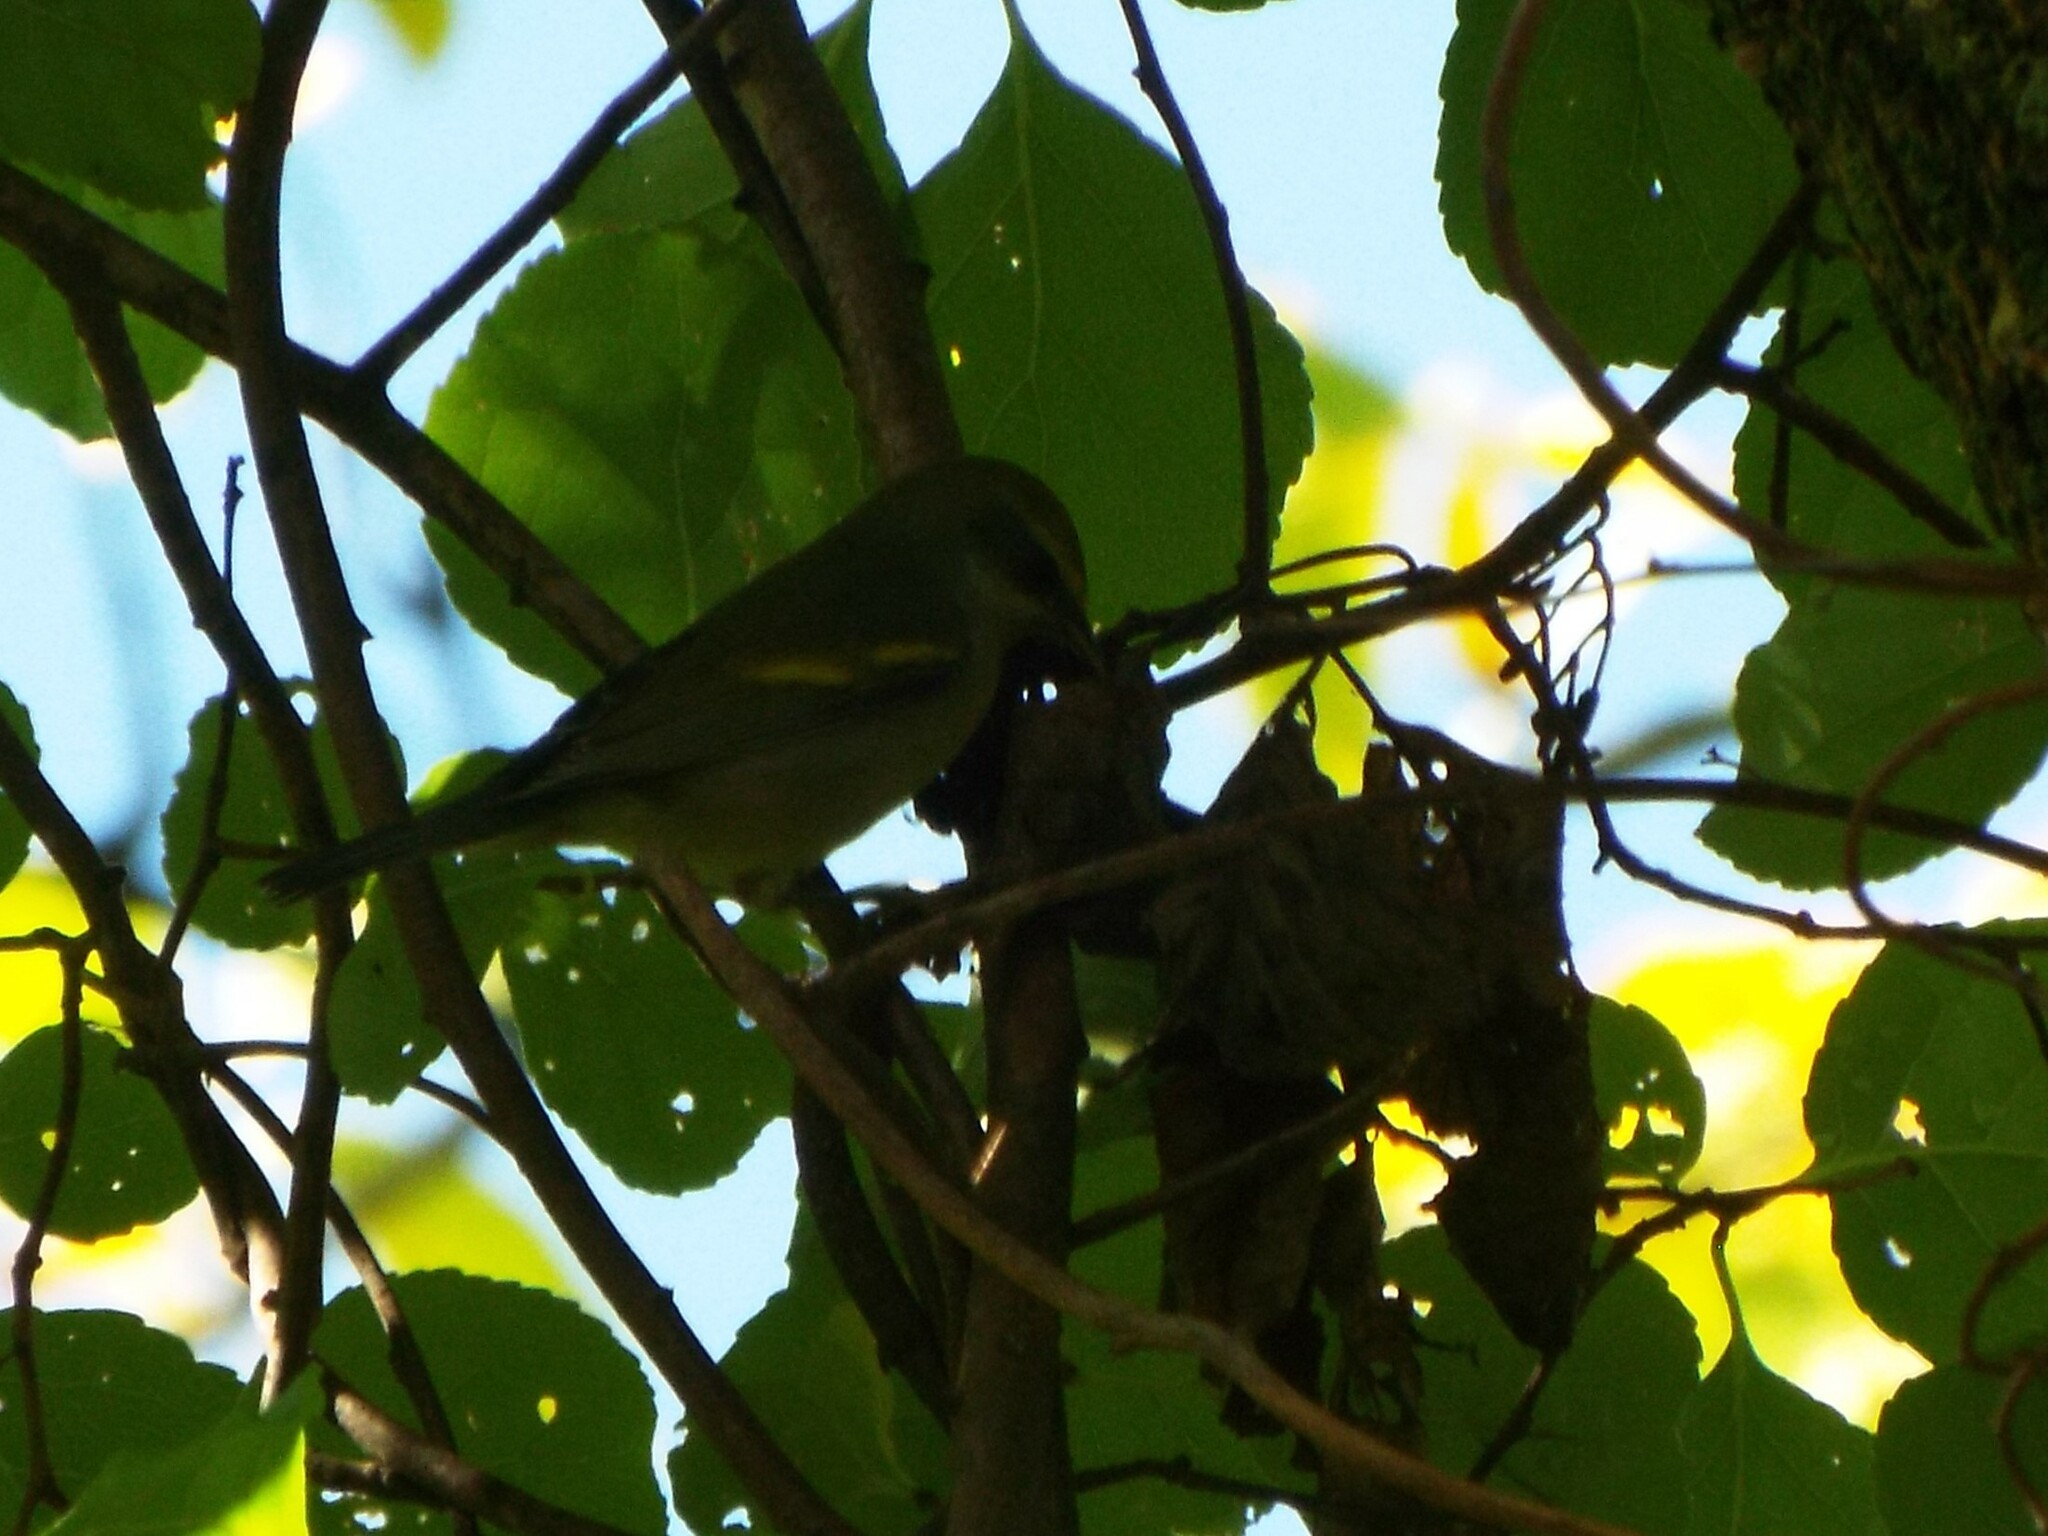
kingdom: Animalia
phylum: Chordata
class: Aves
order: Passeriformes
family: Parulidae
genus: Vermivora
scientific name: Vermivora chrysoptera
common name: Golden-winged warbler
